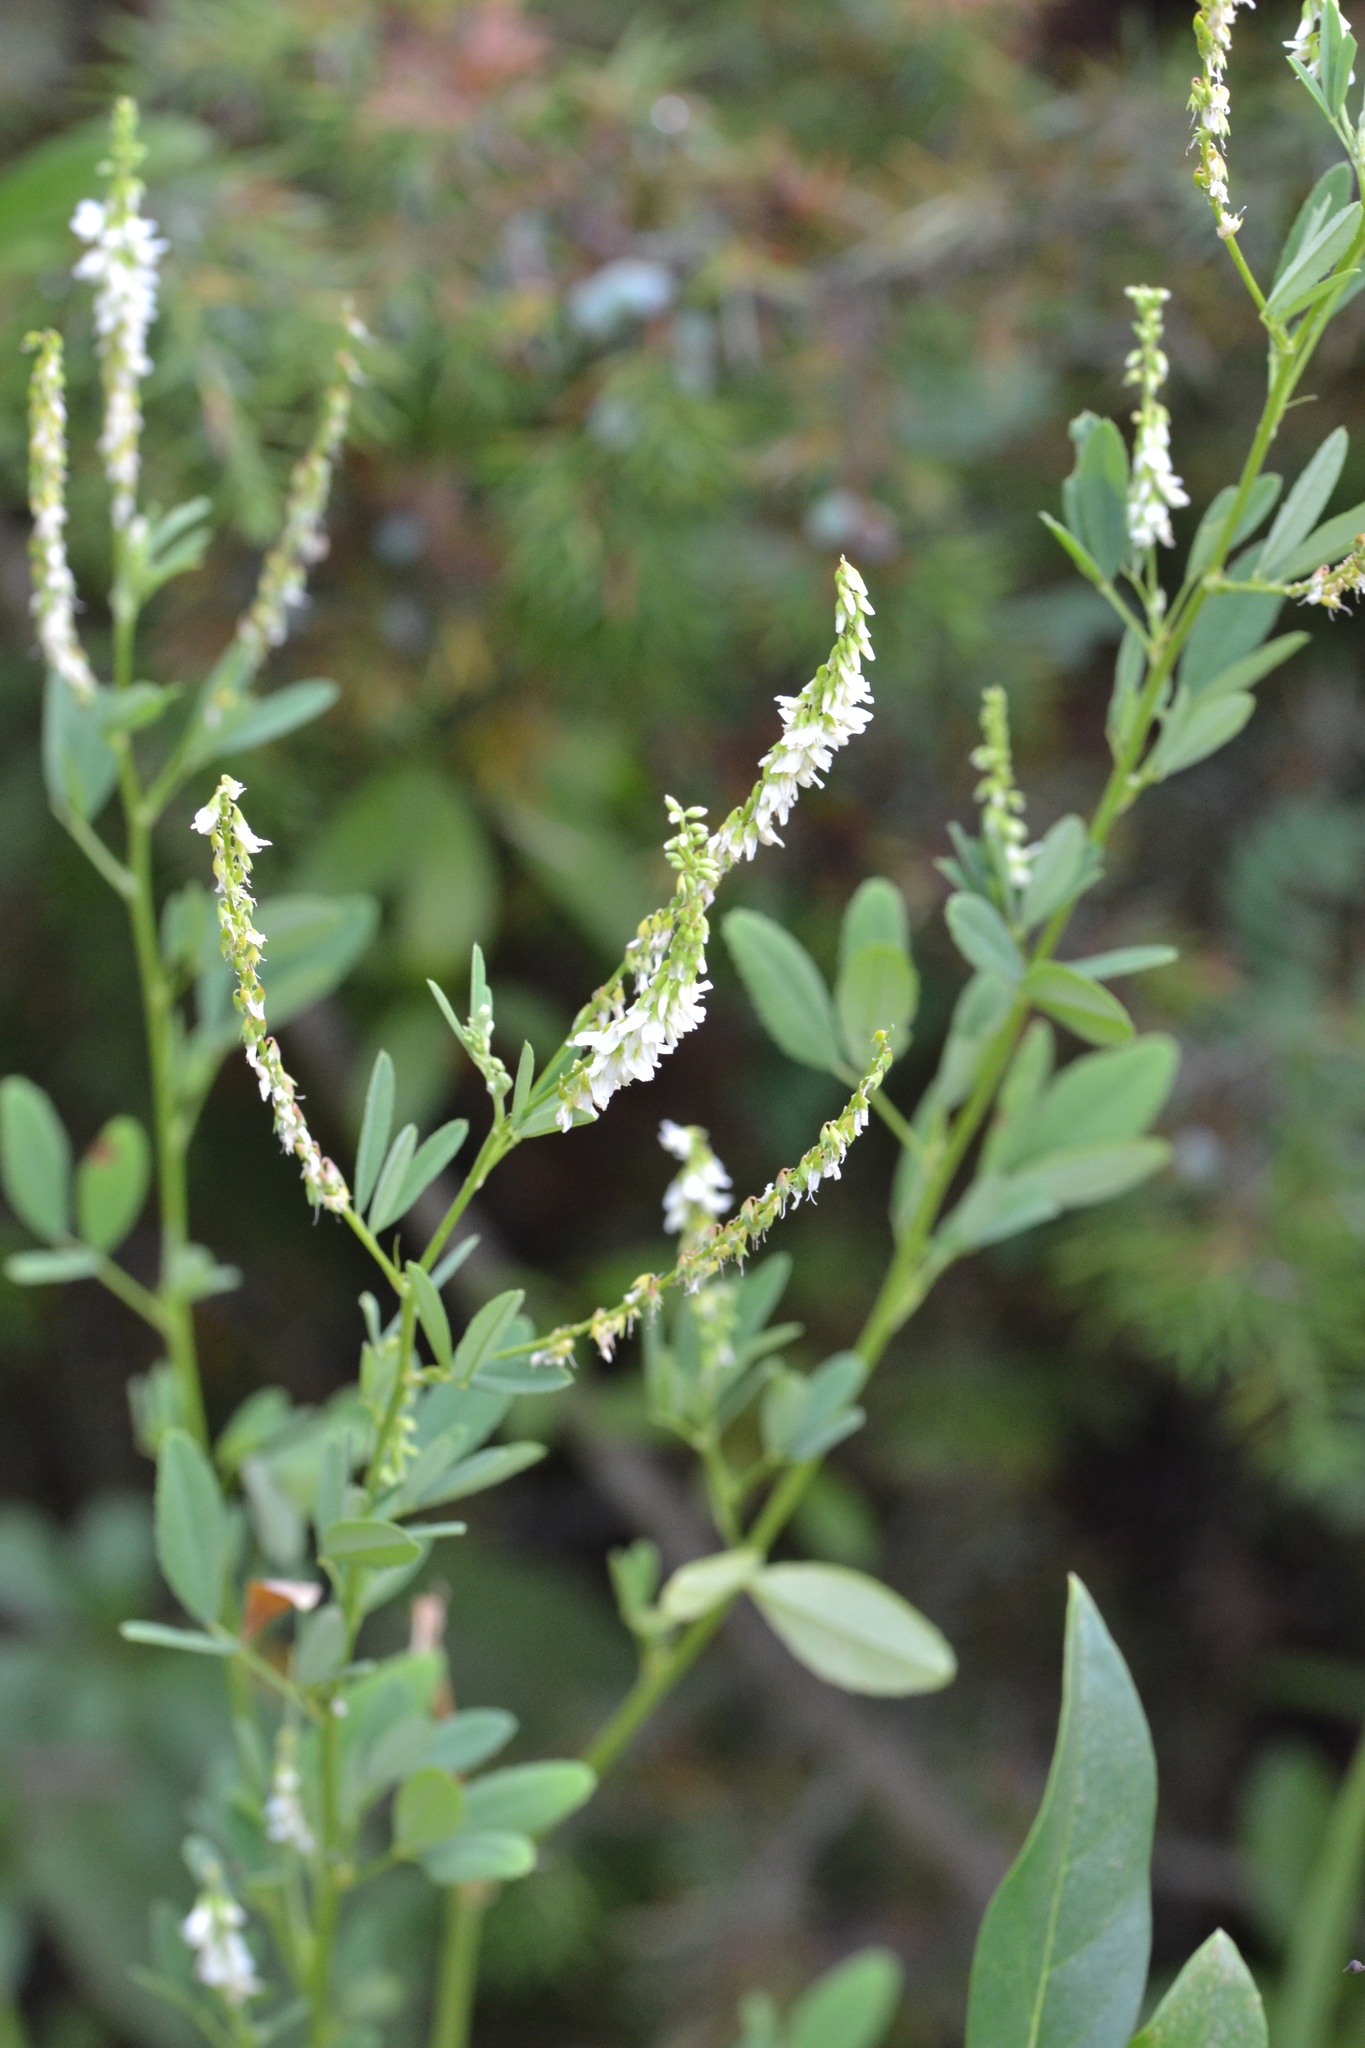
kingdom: Plantae
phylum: Tracheophyta
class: Magnoliopsida
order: Fabales
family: Fabaceae
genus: Melilotus
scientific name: Melilotus albus
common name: White melilot
